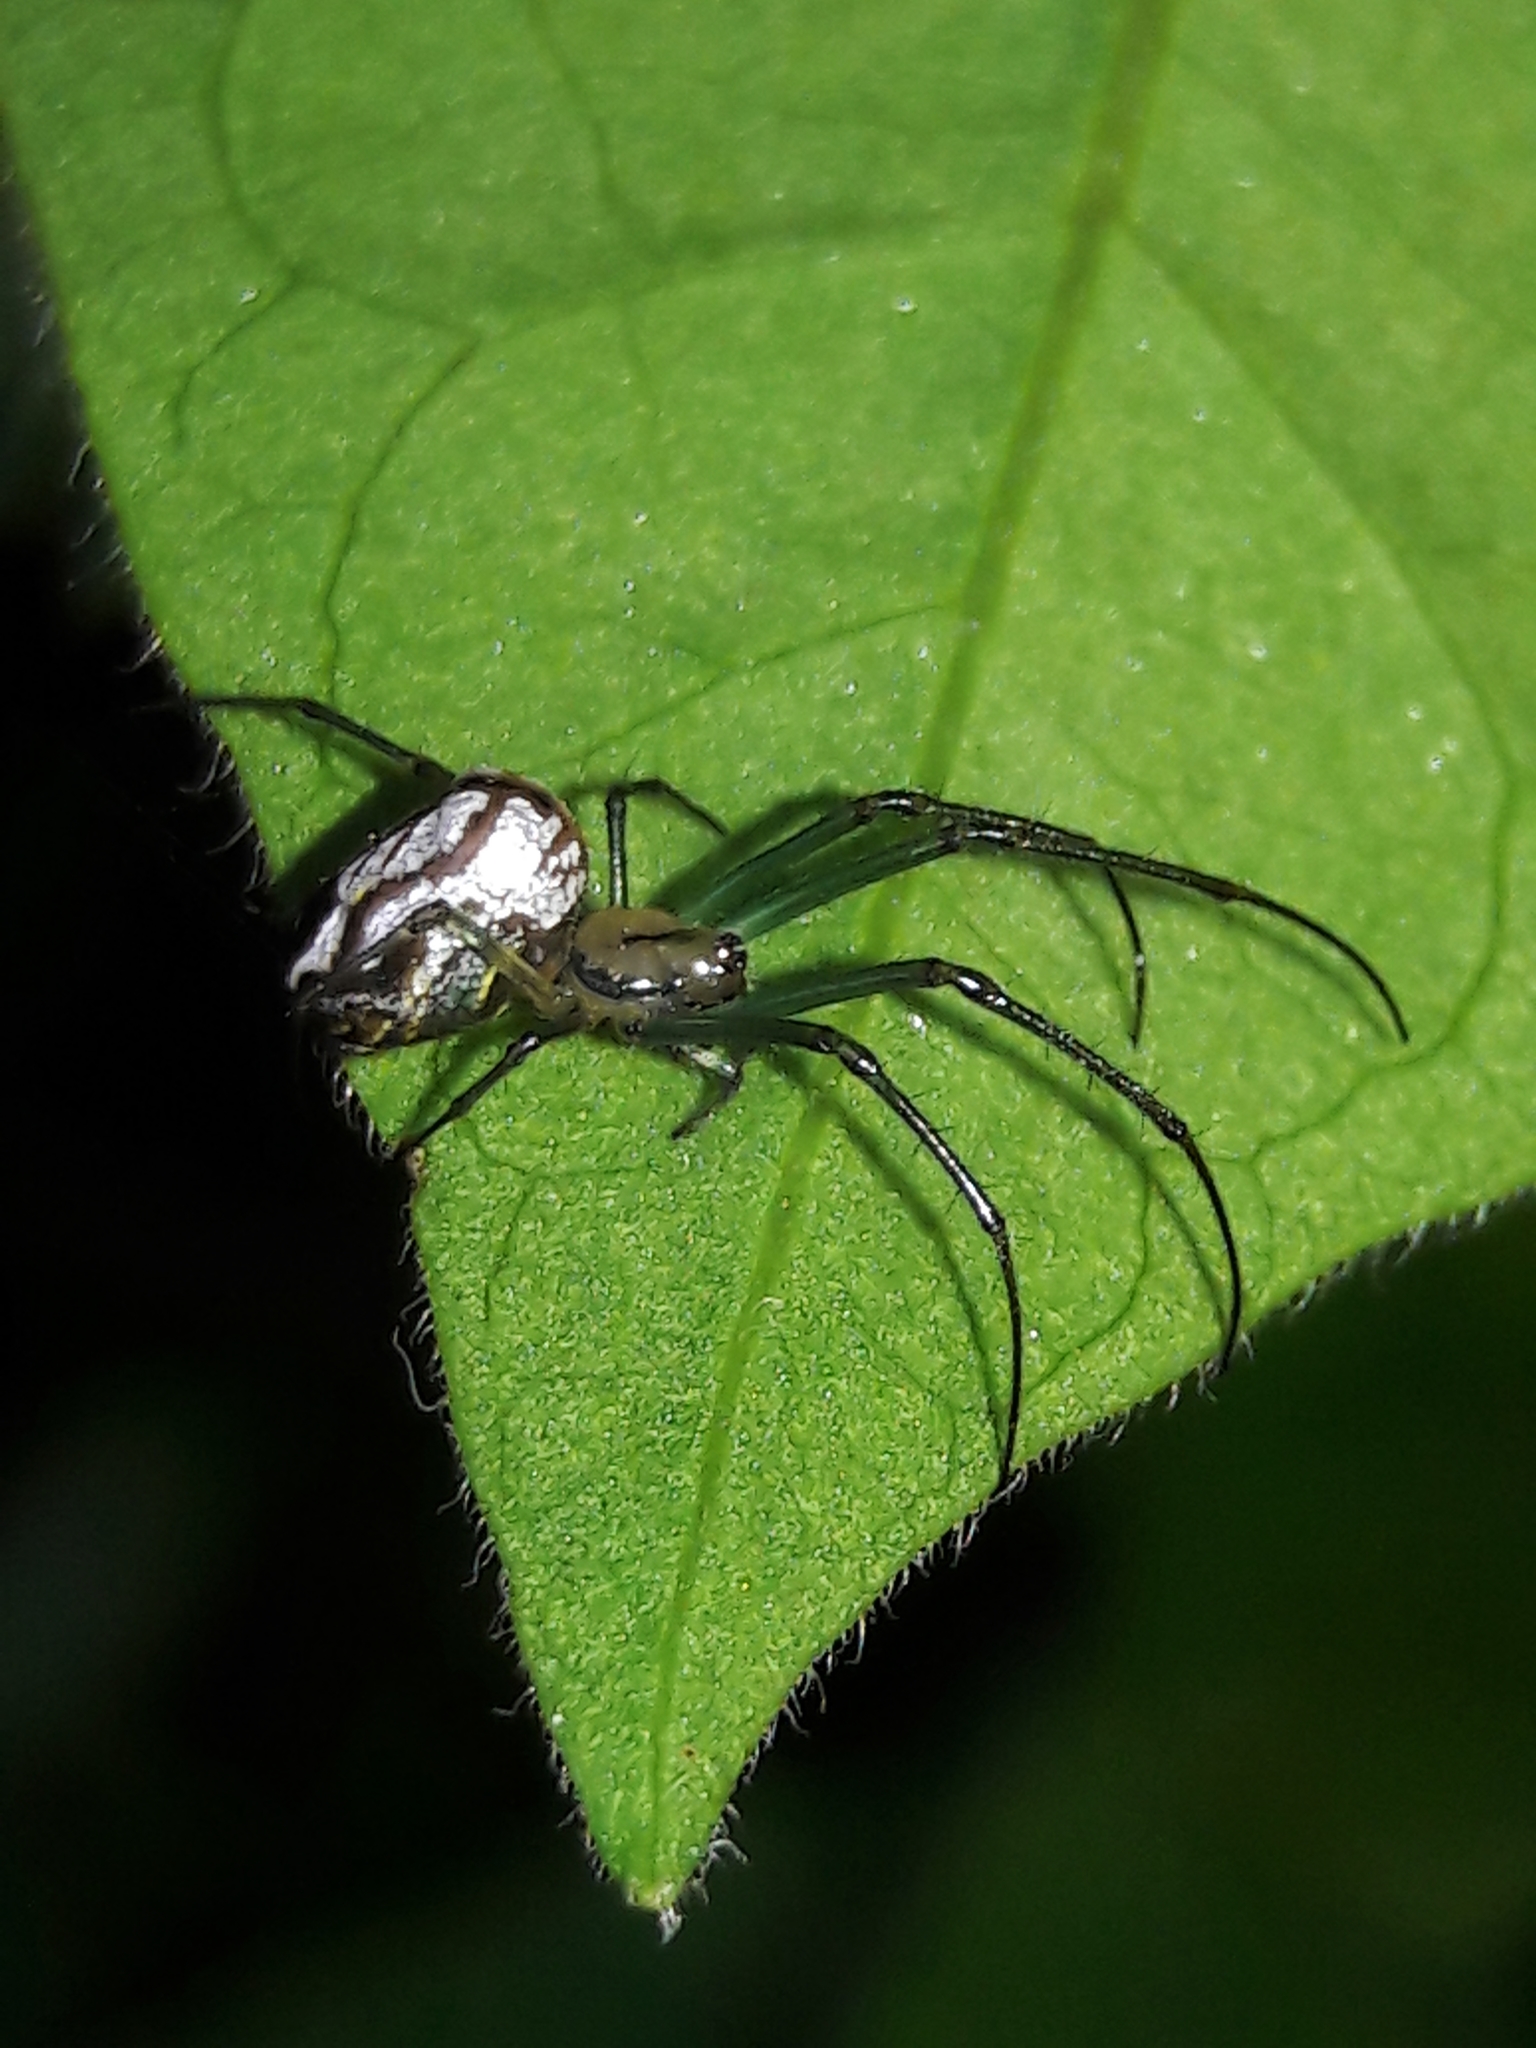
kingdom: Animalia
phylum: Arthropoda
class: Arachnida
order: Araneae
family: Tetragnathidae
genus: Leucauge
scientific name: Leucauge volupis
